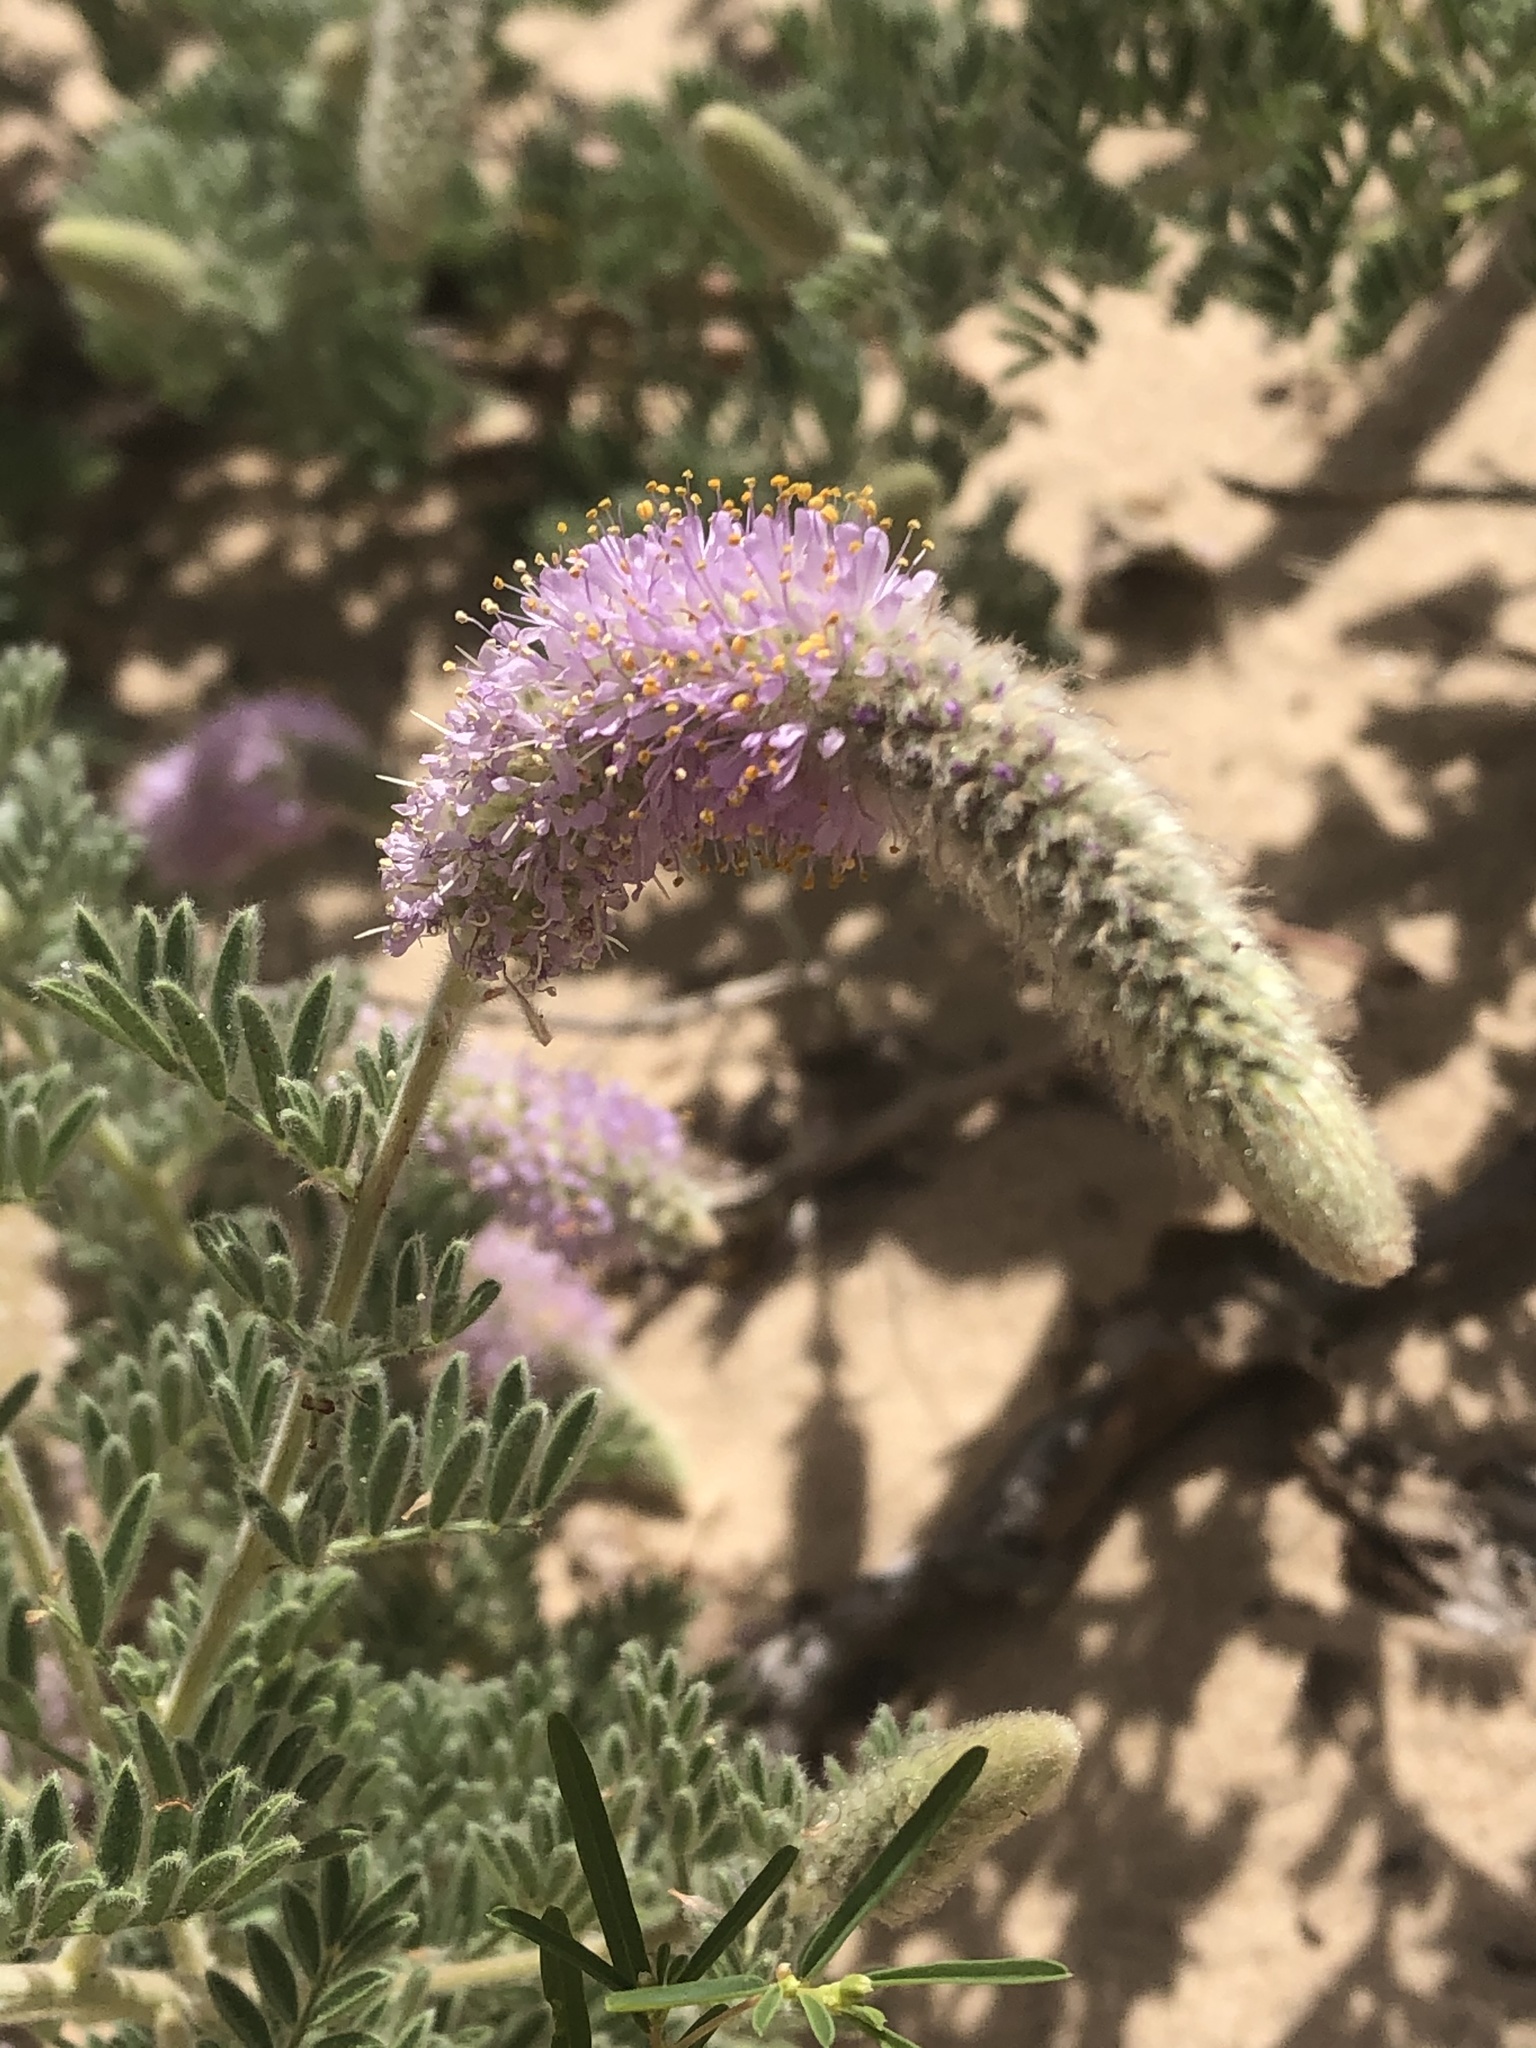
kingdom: Plantae
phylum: Tracheophyta
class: Magnoliopsida
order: Fabales
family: Fabaceae
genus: Dalea
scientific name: Dalea villosa
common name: Silky prairie-clover
